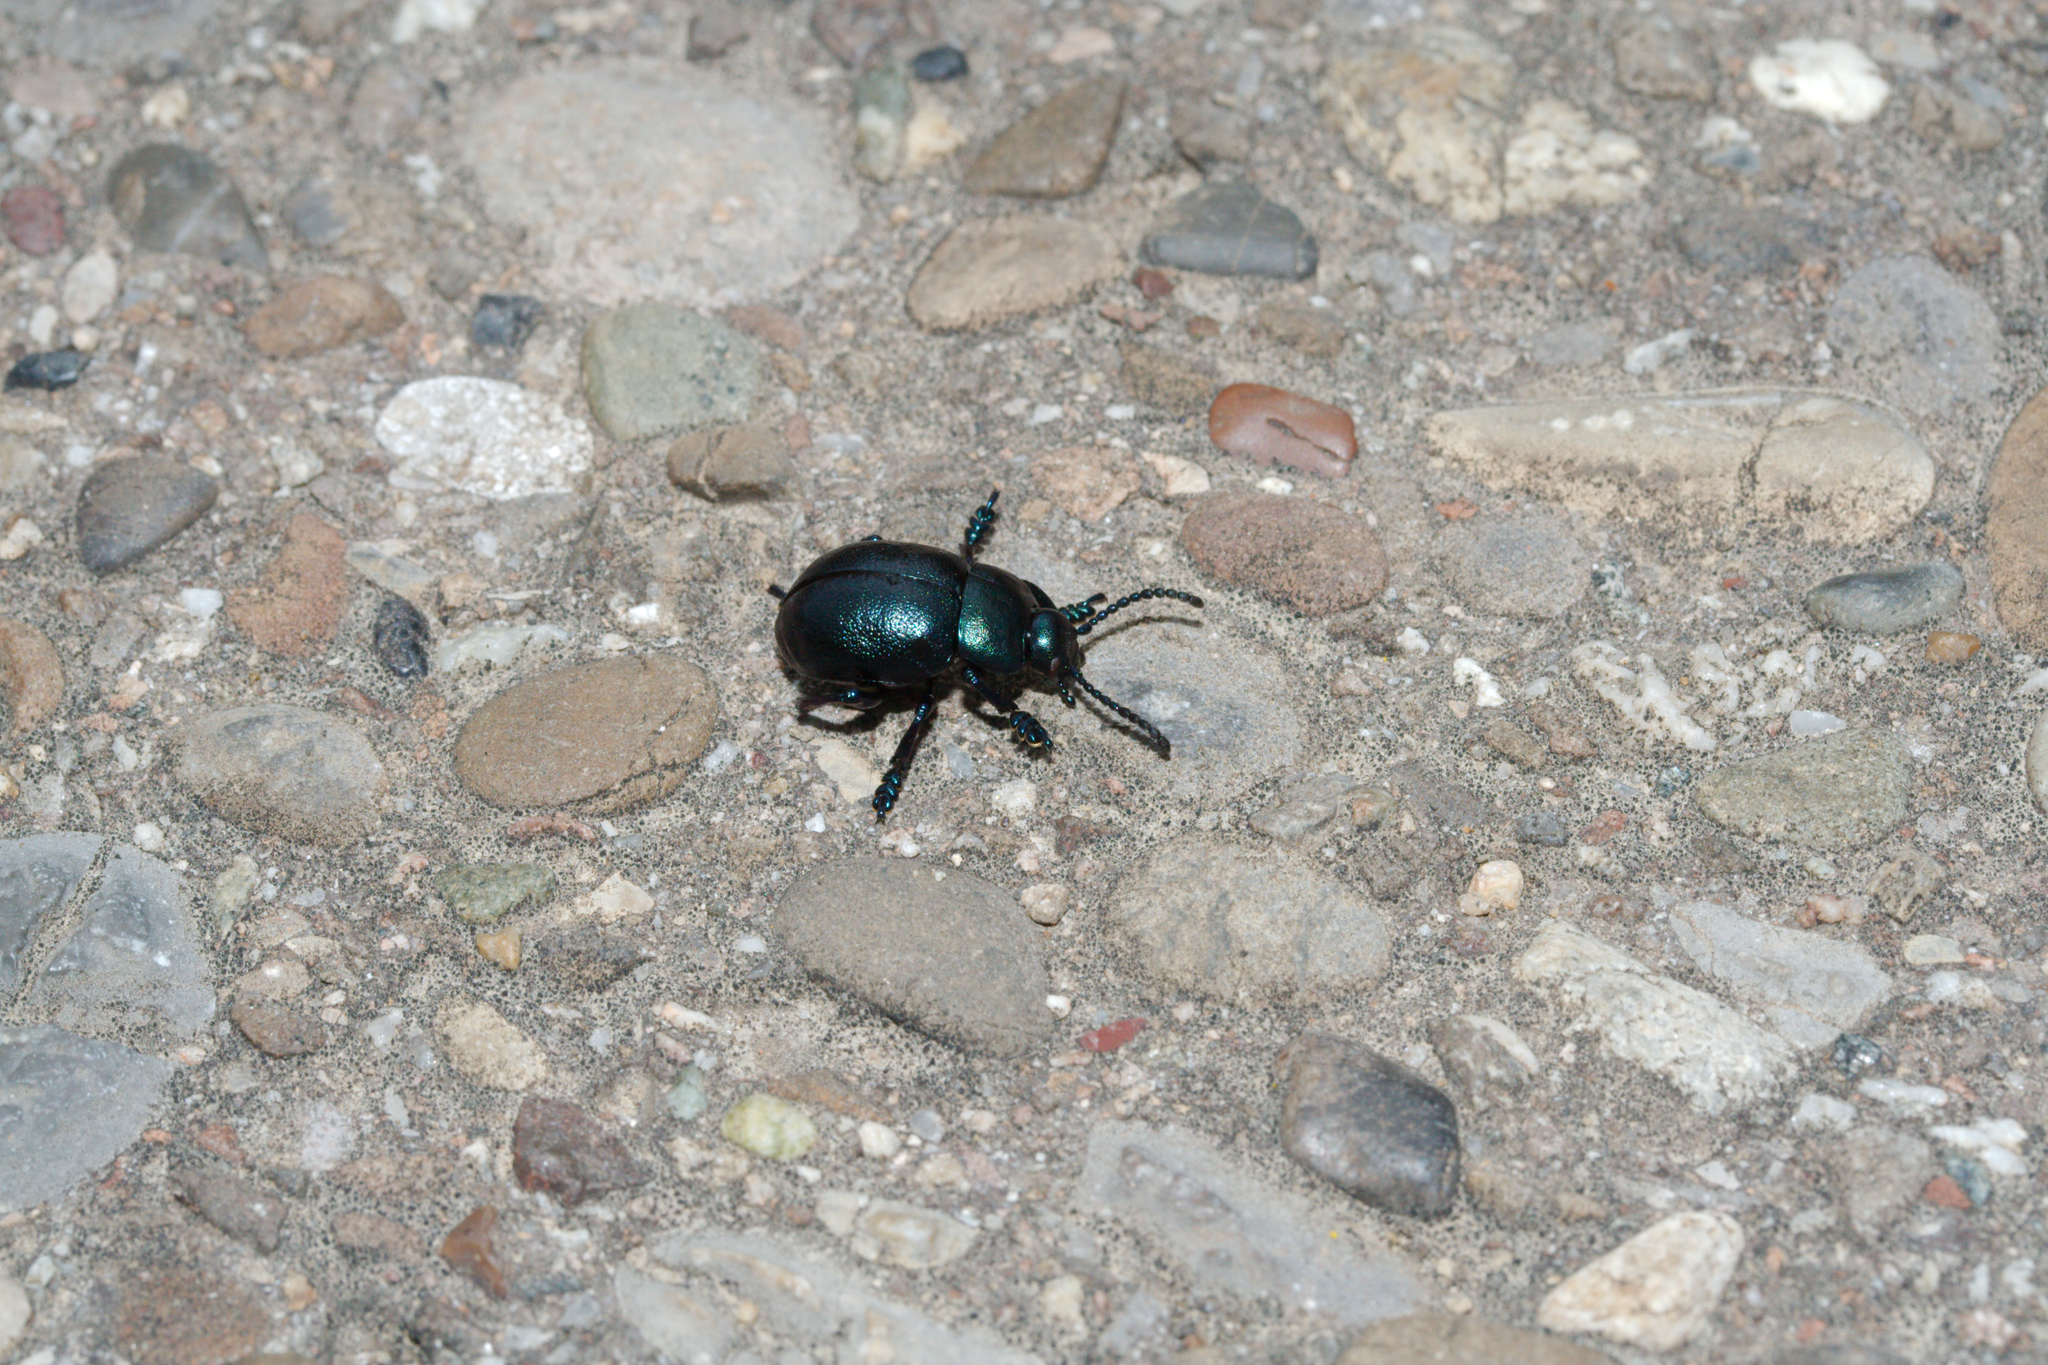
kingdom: Animalia
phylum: Arthropoda
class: Insecta
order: Coleoptera
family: Chrysomelidae
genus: Timarcha
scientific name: Timarcha goettingensis
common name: Small bloody-nosed beetle
